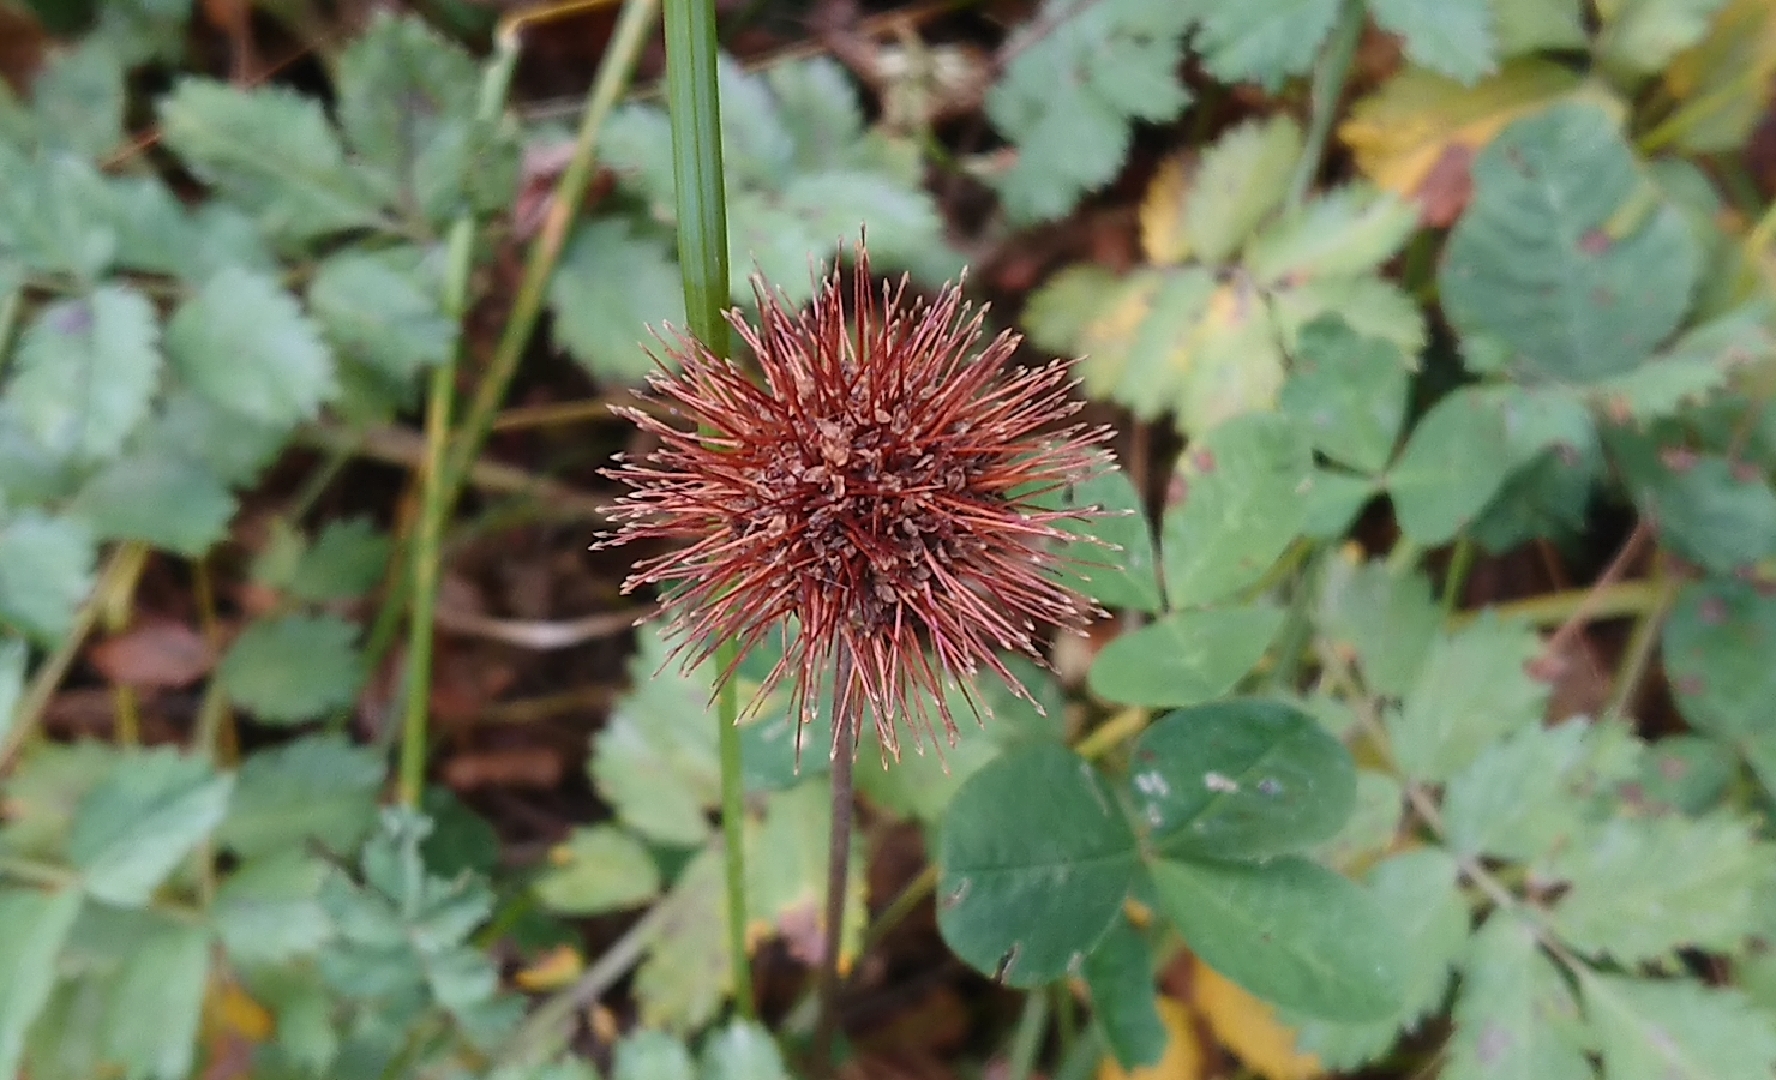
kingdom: Plantae
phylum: Tracheophyta
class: Magnoliopsida
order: Rosales
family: Rosaceae
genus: Acaena
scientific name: Acaena magellanica
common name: New zealand burr
